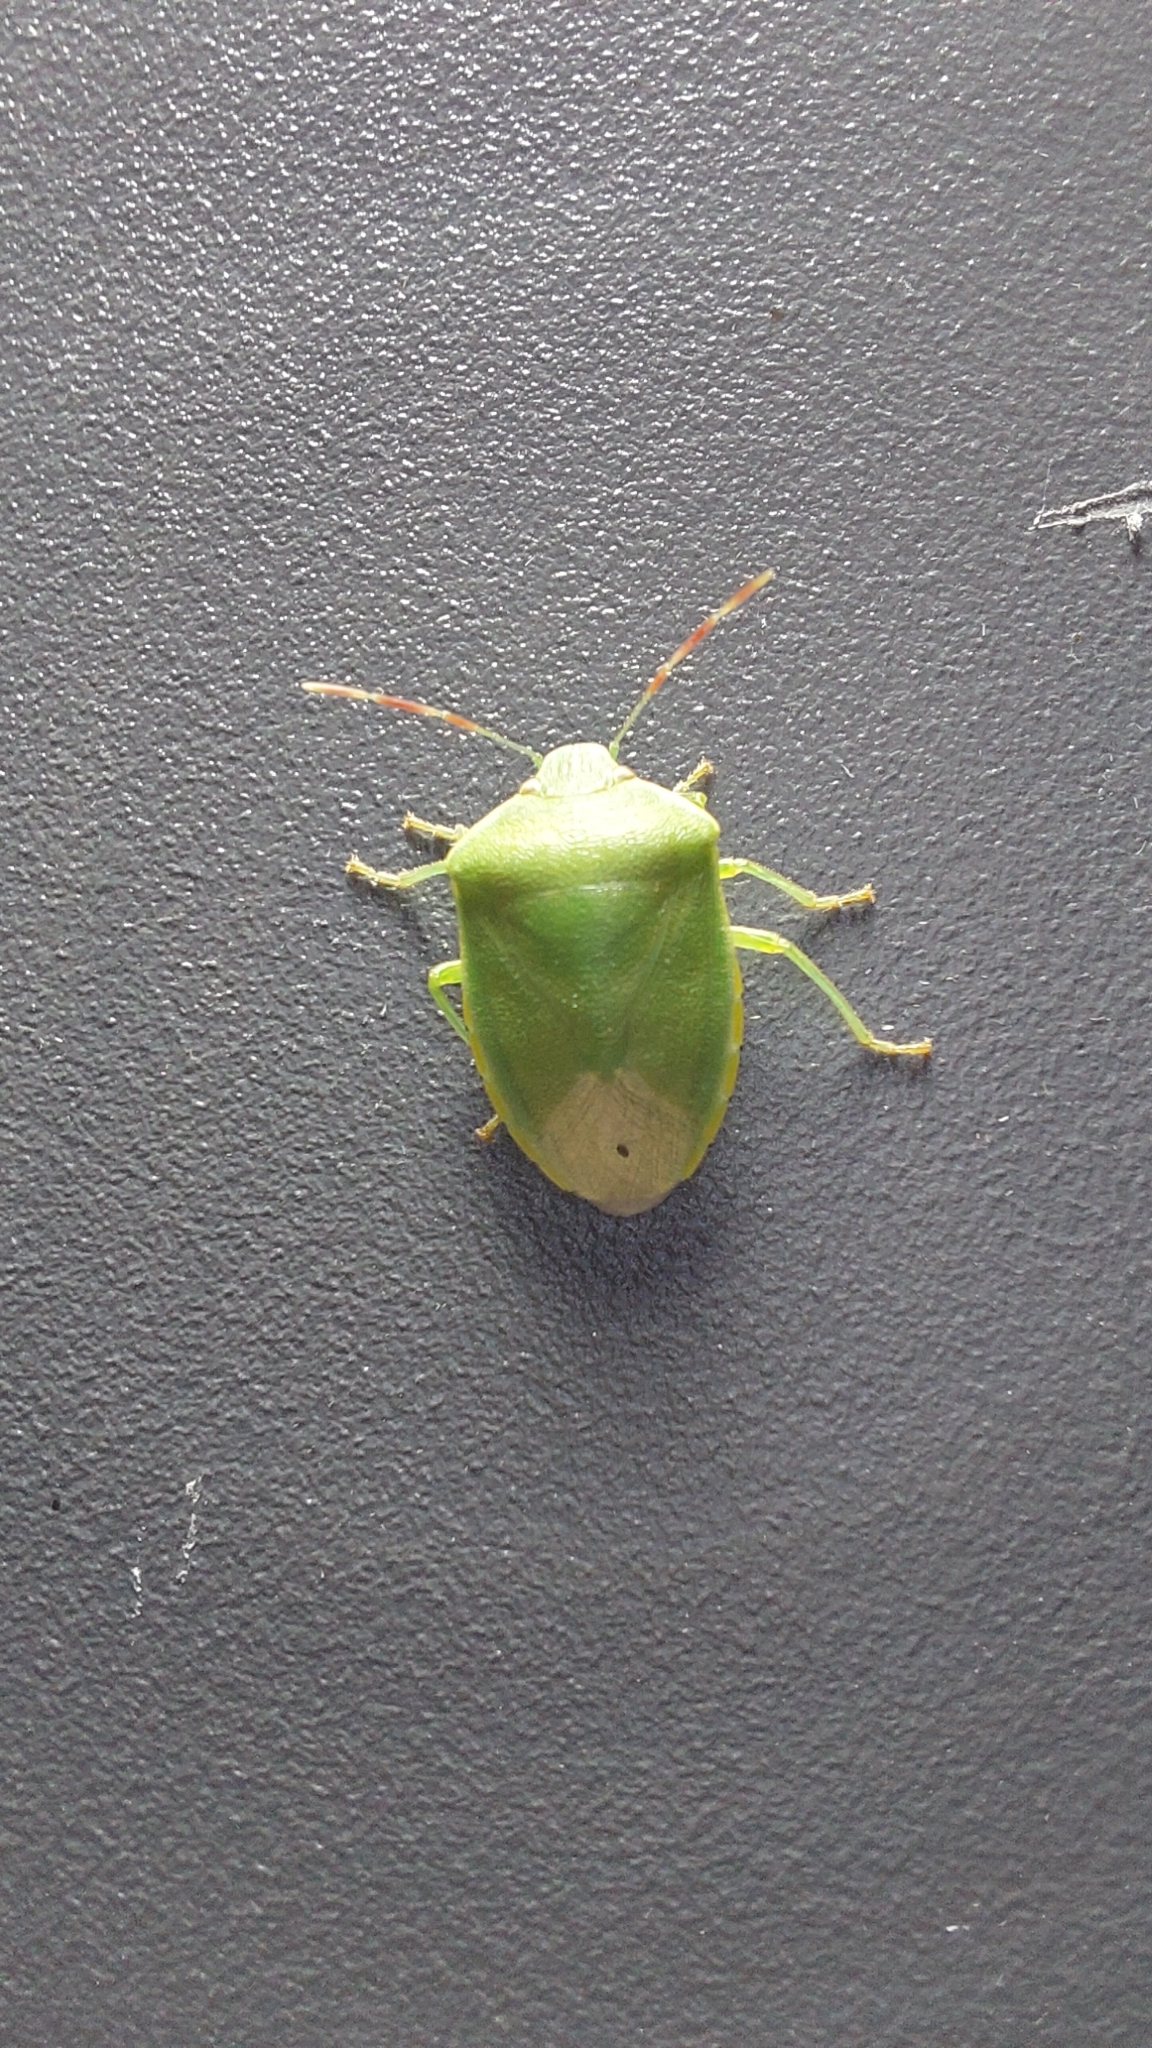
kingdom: Animalia
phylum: Arthropoda
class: Insecta
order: Hemiptera
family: Pentatomidae
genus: Acrosternum
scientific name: Acrosternum heegeri
